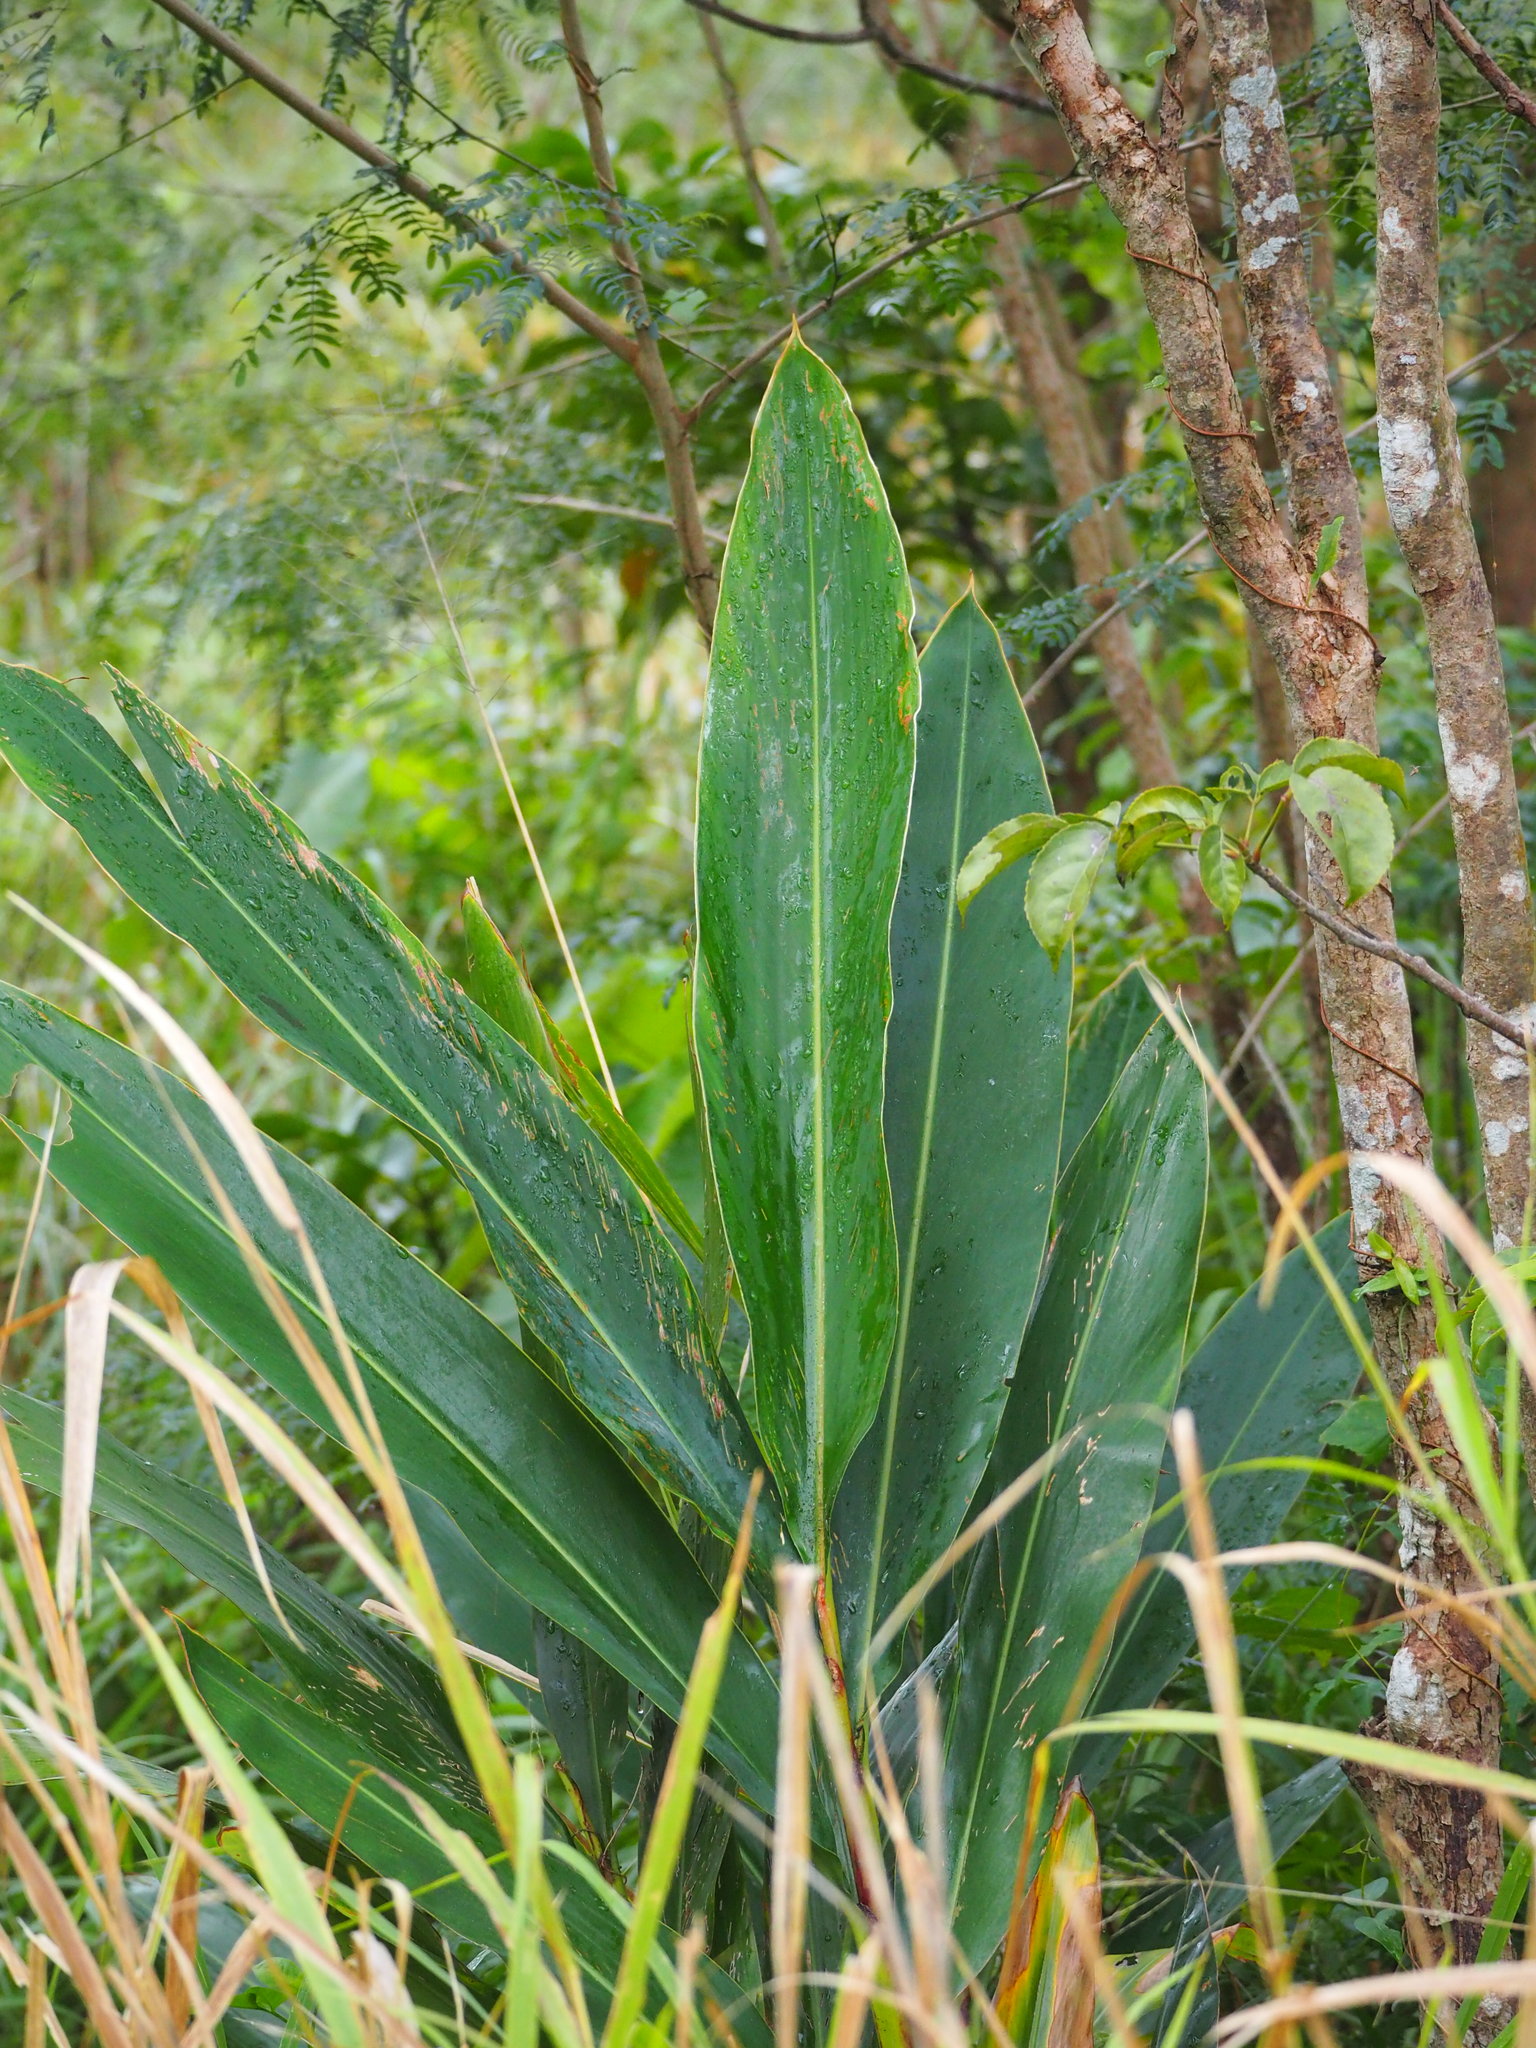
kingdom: Plantae
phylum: Tracheophyta
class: Liliopsida
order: Zingiberales
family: Zingiberaceae
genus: Alpinia
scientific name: Alpinia zerumbet
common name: Shellplant
